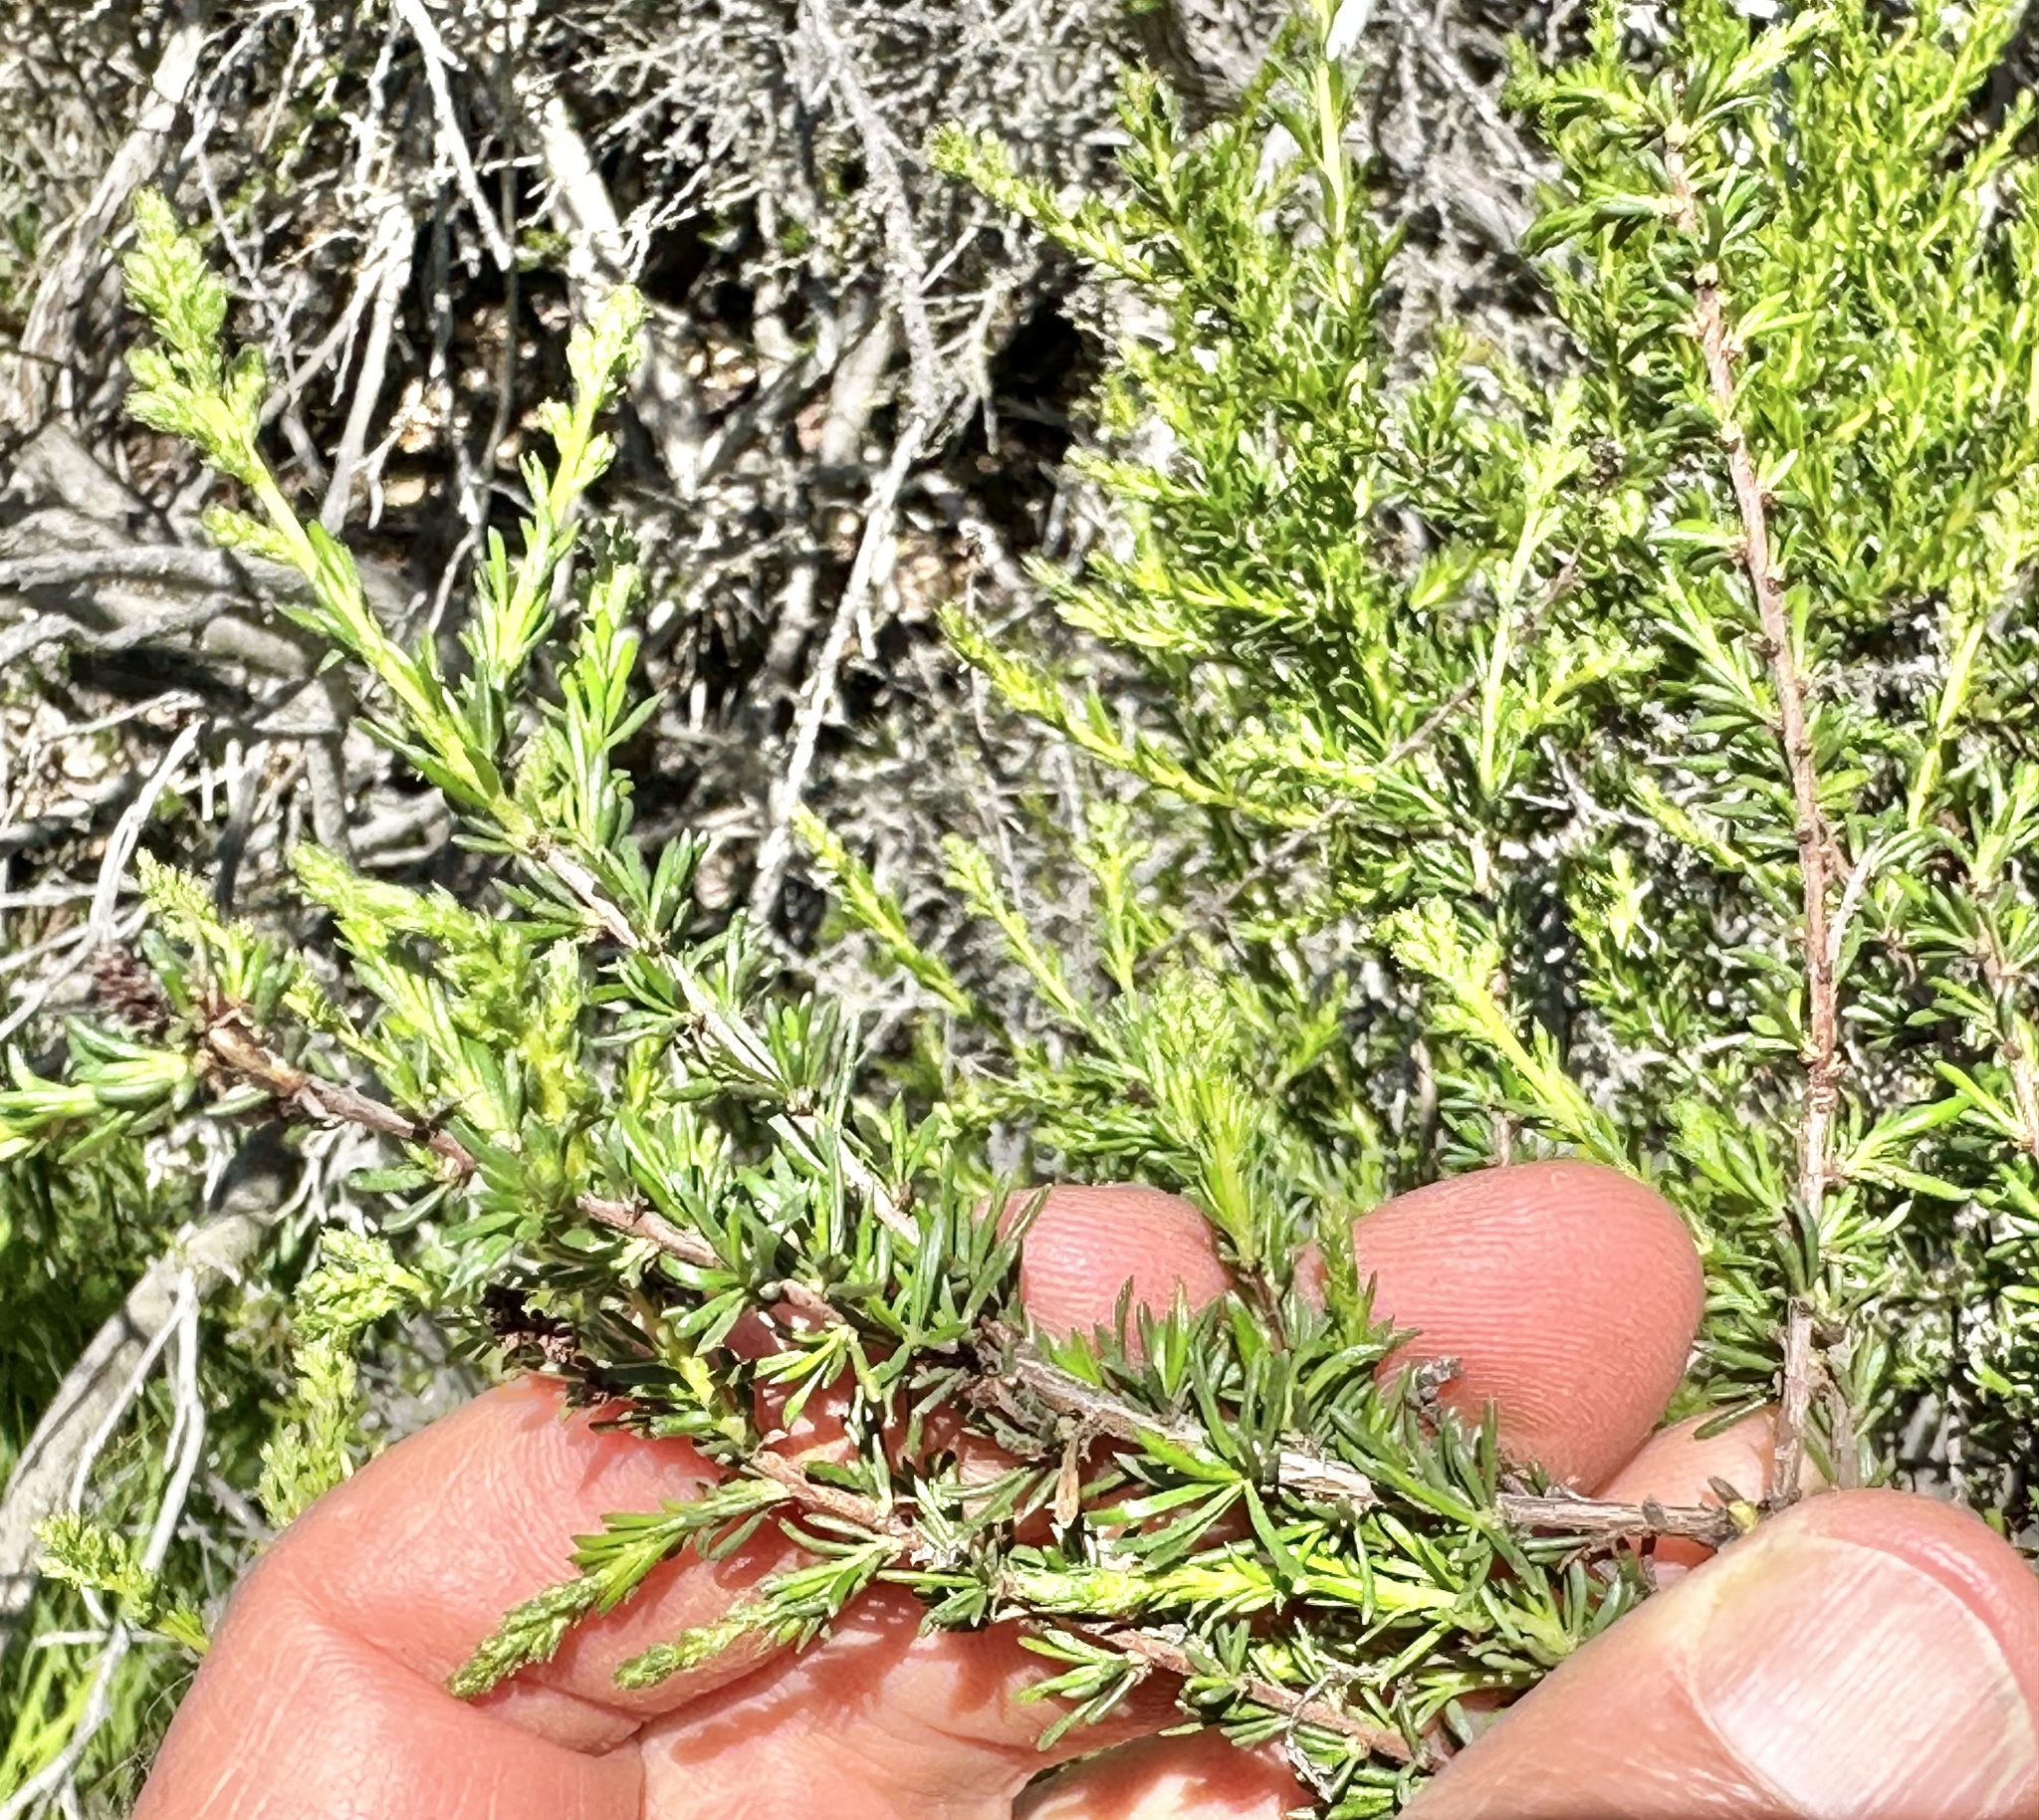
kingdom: Plantae
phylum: Tracheophyta
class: Magnoliopsida
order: Rosales
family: Rosaceae
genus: Adenostoma
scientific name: Adenostoma fasciculatum
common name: Chamise
